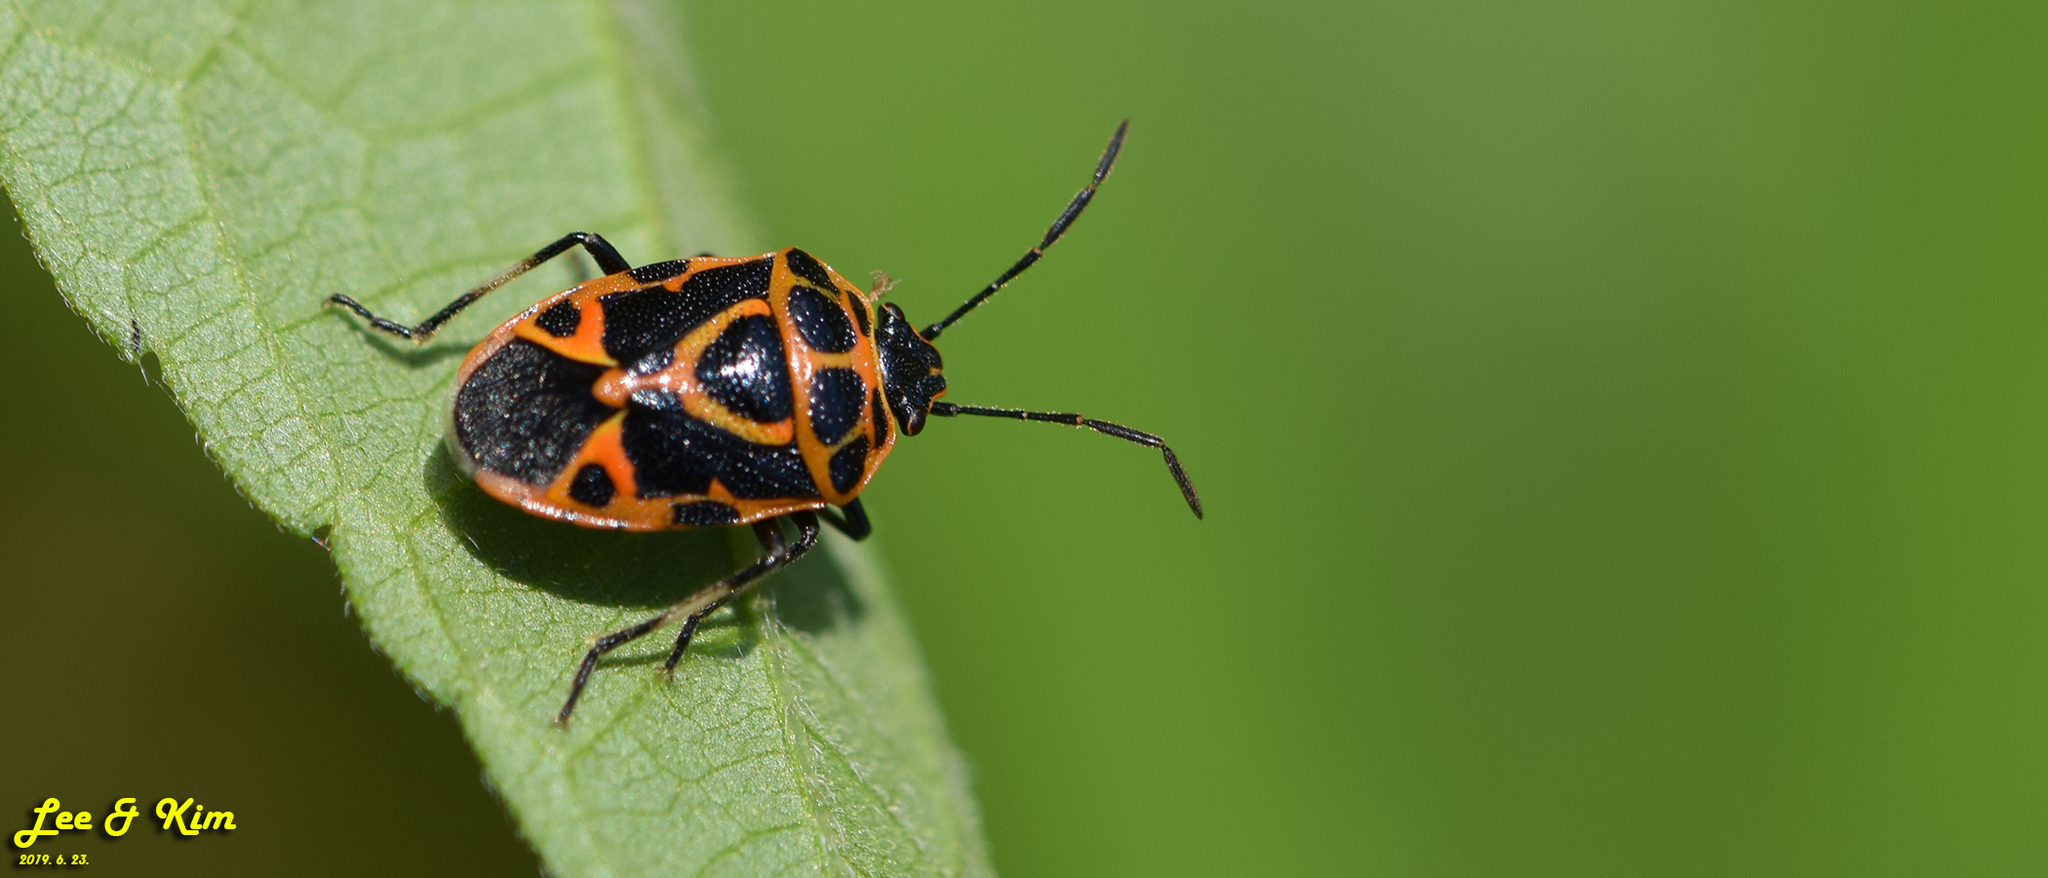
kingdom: Animalia
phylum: Arthropoda
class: Insecta
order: Hemiptera
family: Pentatomidae
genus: Eurydema
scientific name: Eurydema dominulus
